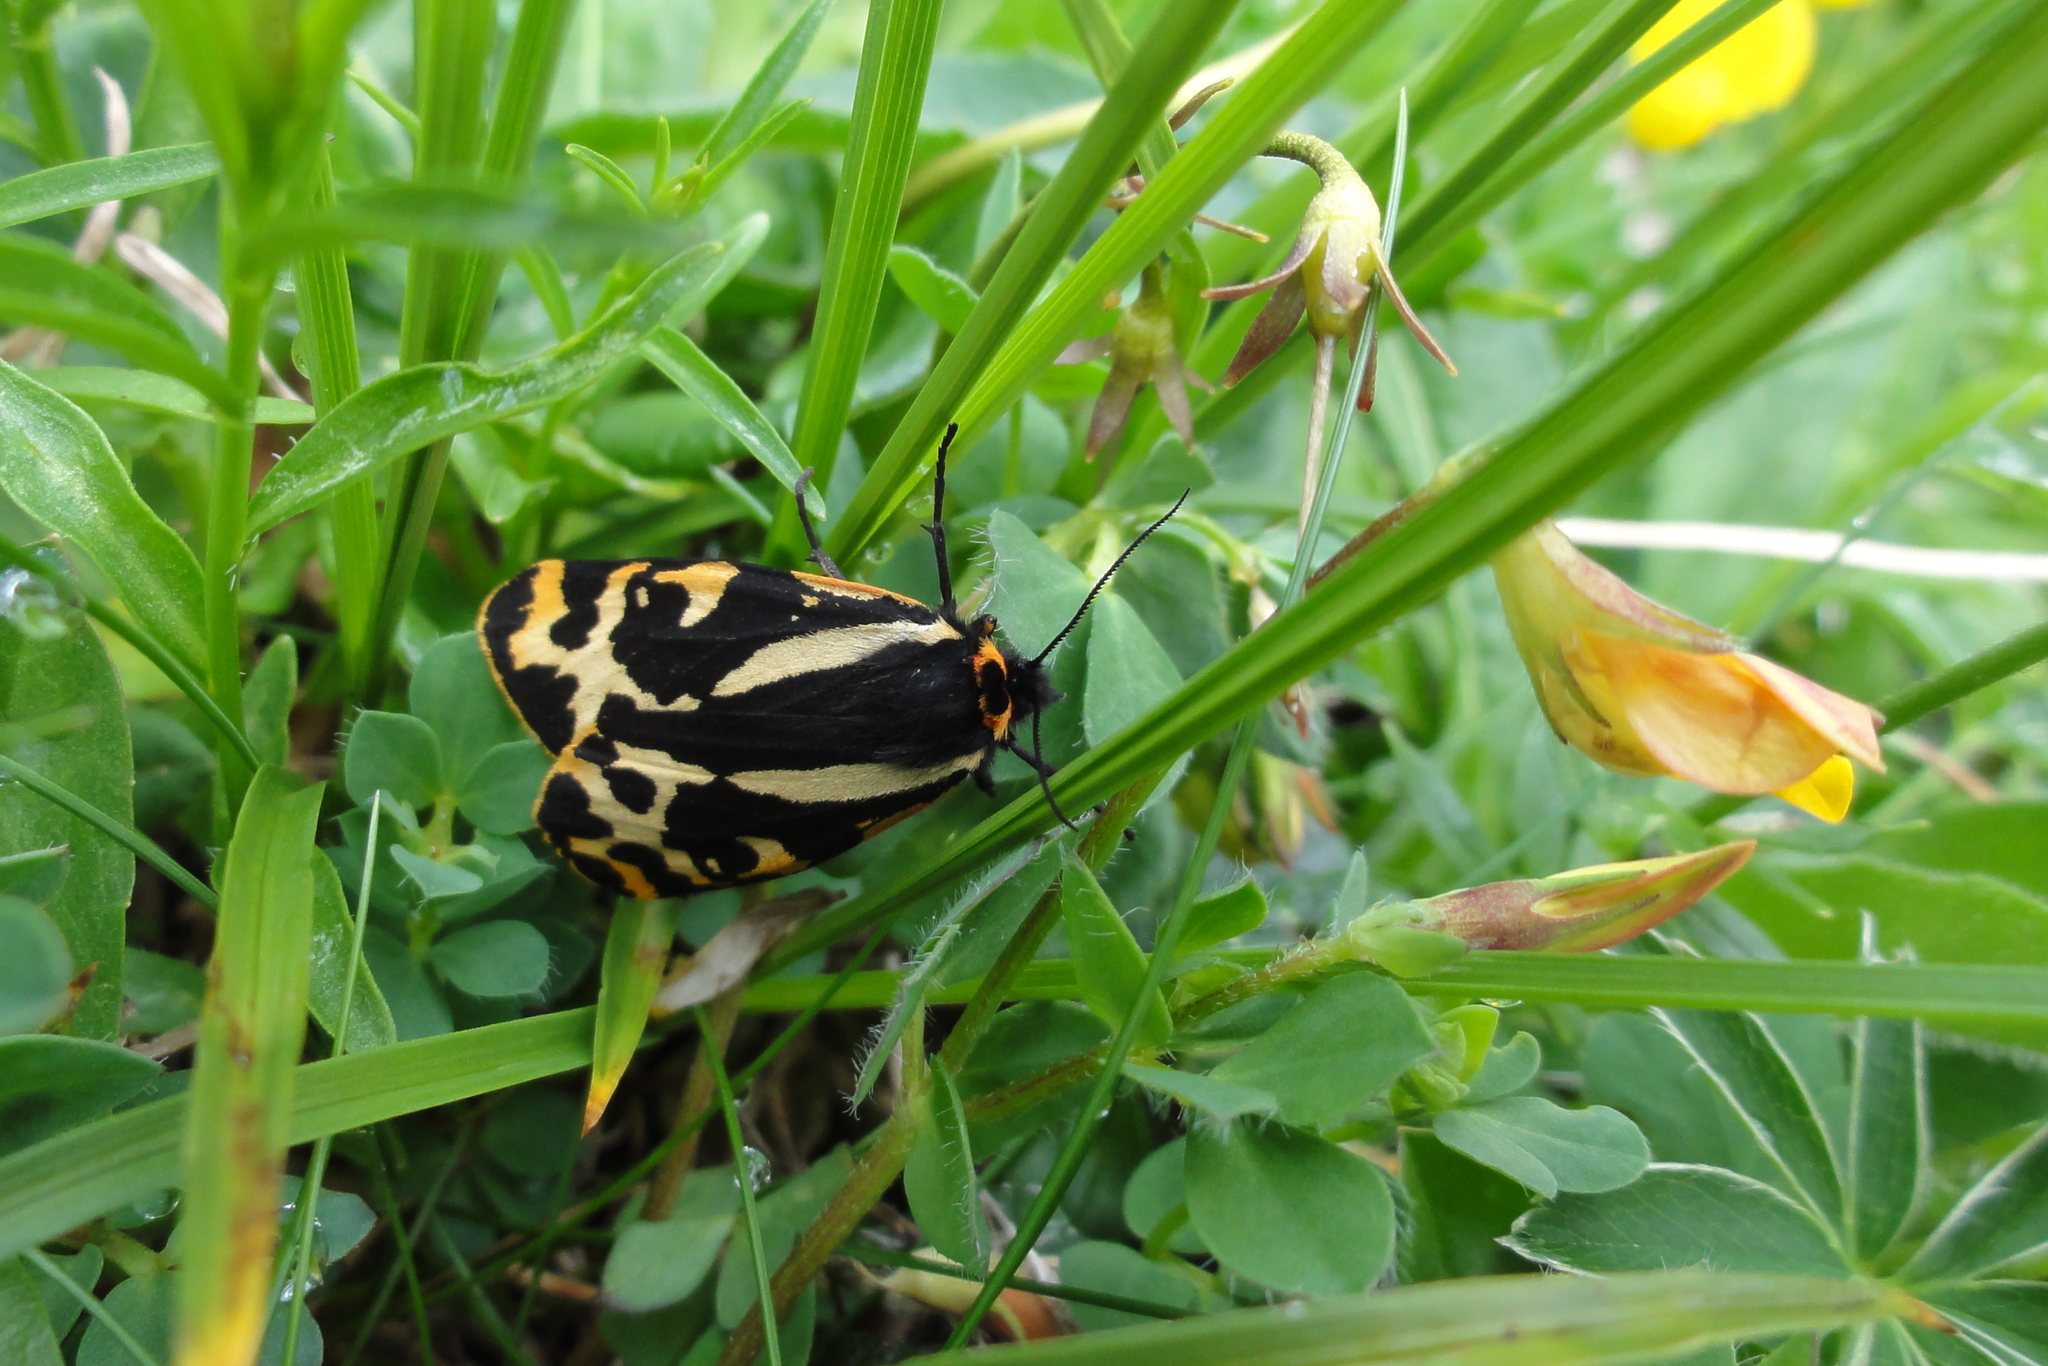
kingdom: Animalia
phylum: Arthropoda
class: Insecta
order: Lepidoptera
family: Erebidae
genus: Parasemia
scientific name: Parasemia plantaginis
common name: Wood tiger
